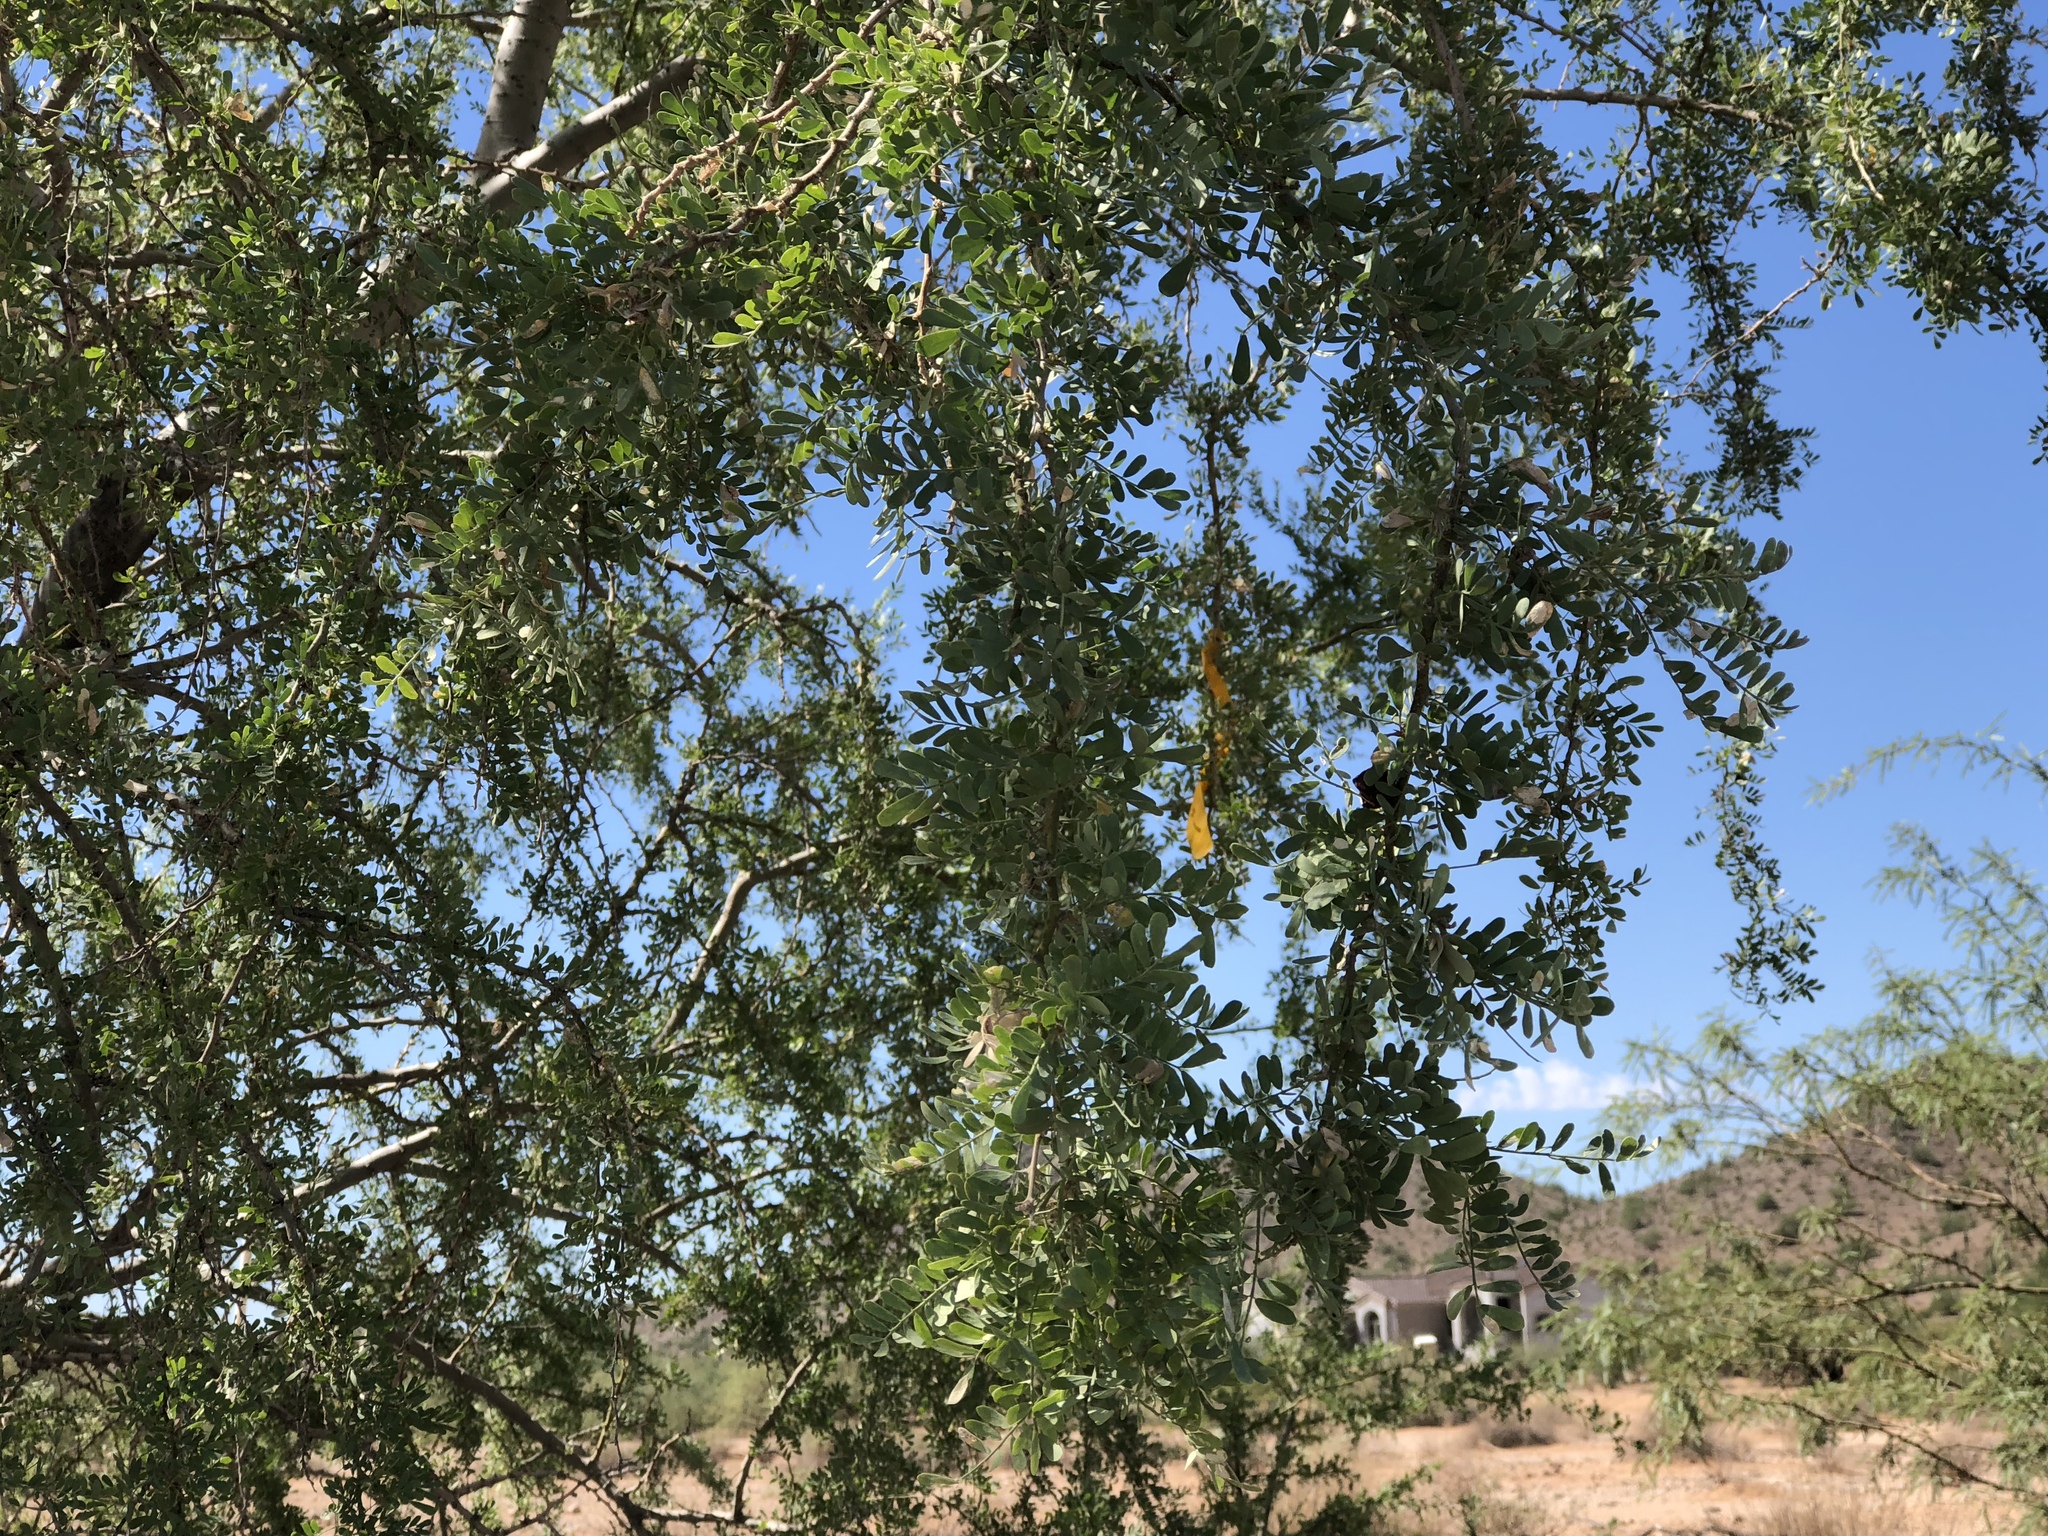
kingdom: Plantae
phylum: Tracheophyta
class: Magnoliopsida
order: Fabales
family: Fabaceae
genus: Olneya
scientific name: Olneya tesota
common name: Desert ironwood
